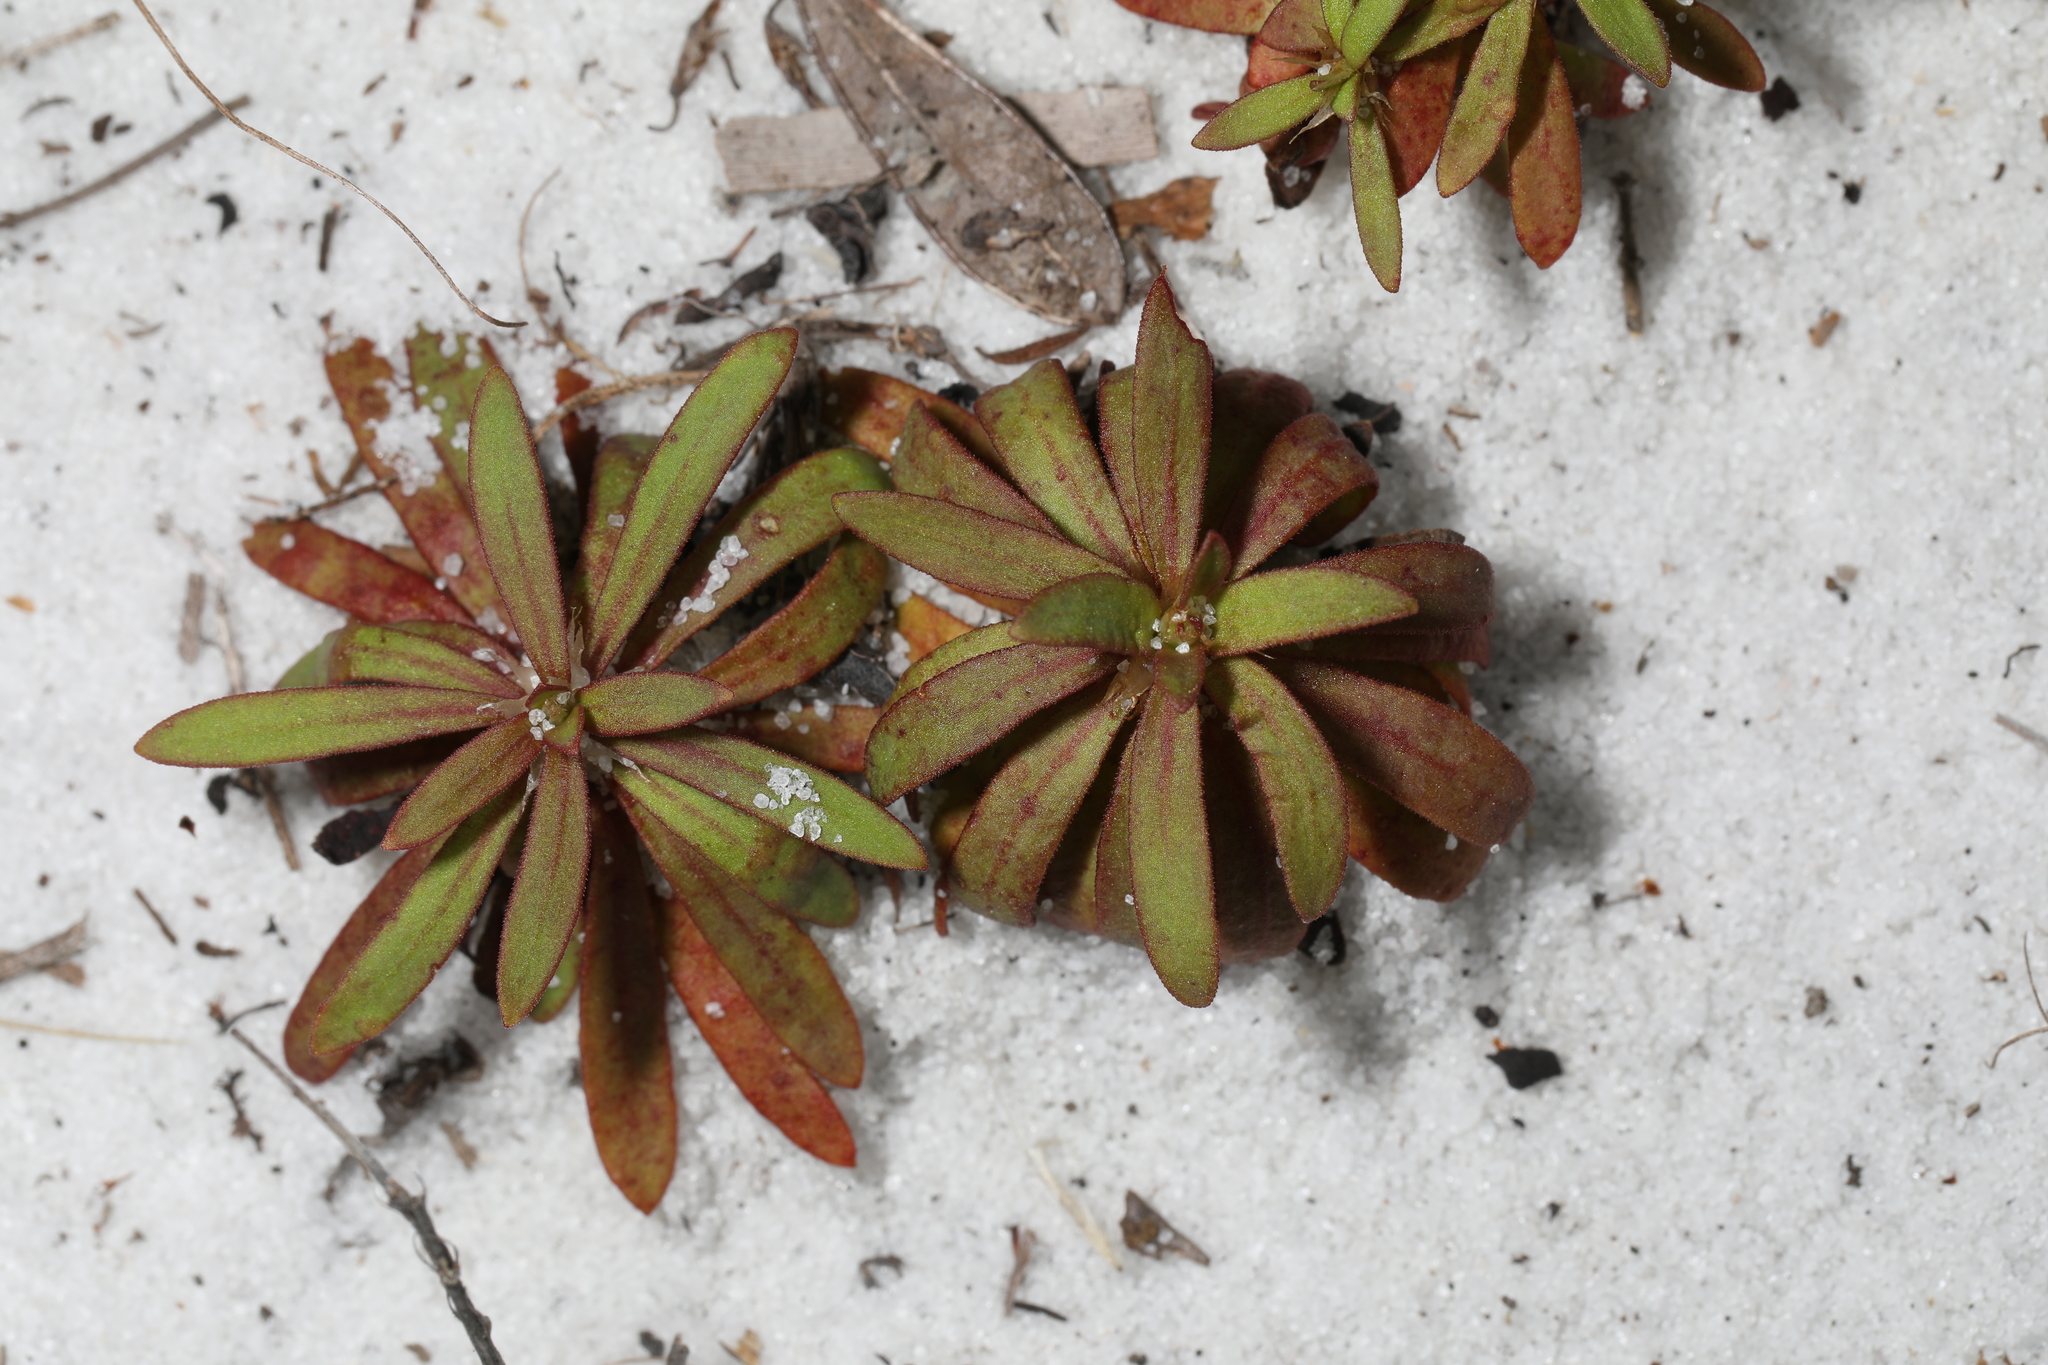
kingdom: Plantae
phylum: Tracheophyta
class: Magnoliopsida
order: Caryophyllales
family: Caryophyllaceae
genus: Paronychia
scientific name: Paronychia americana
